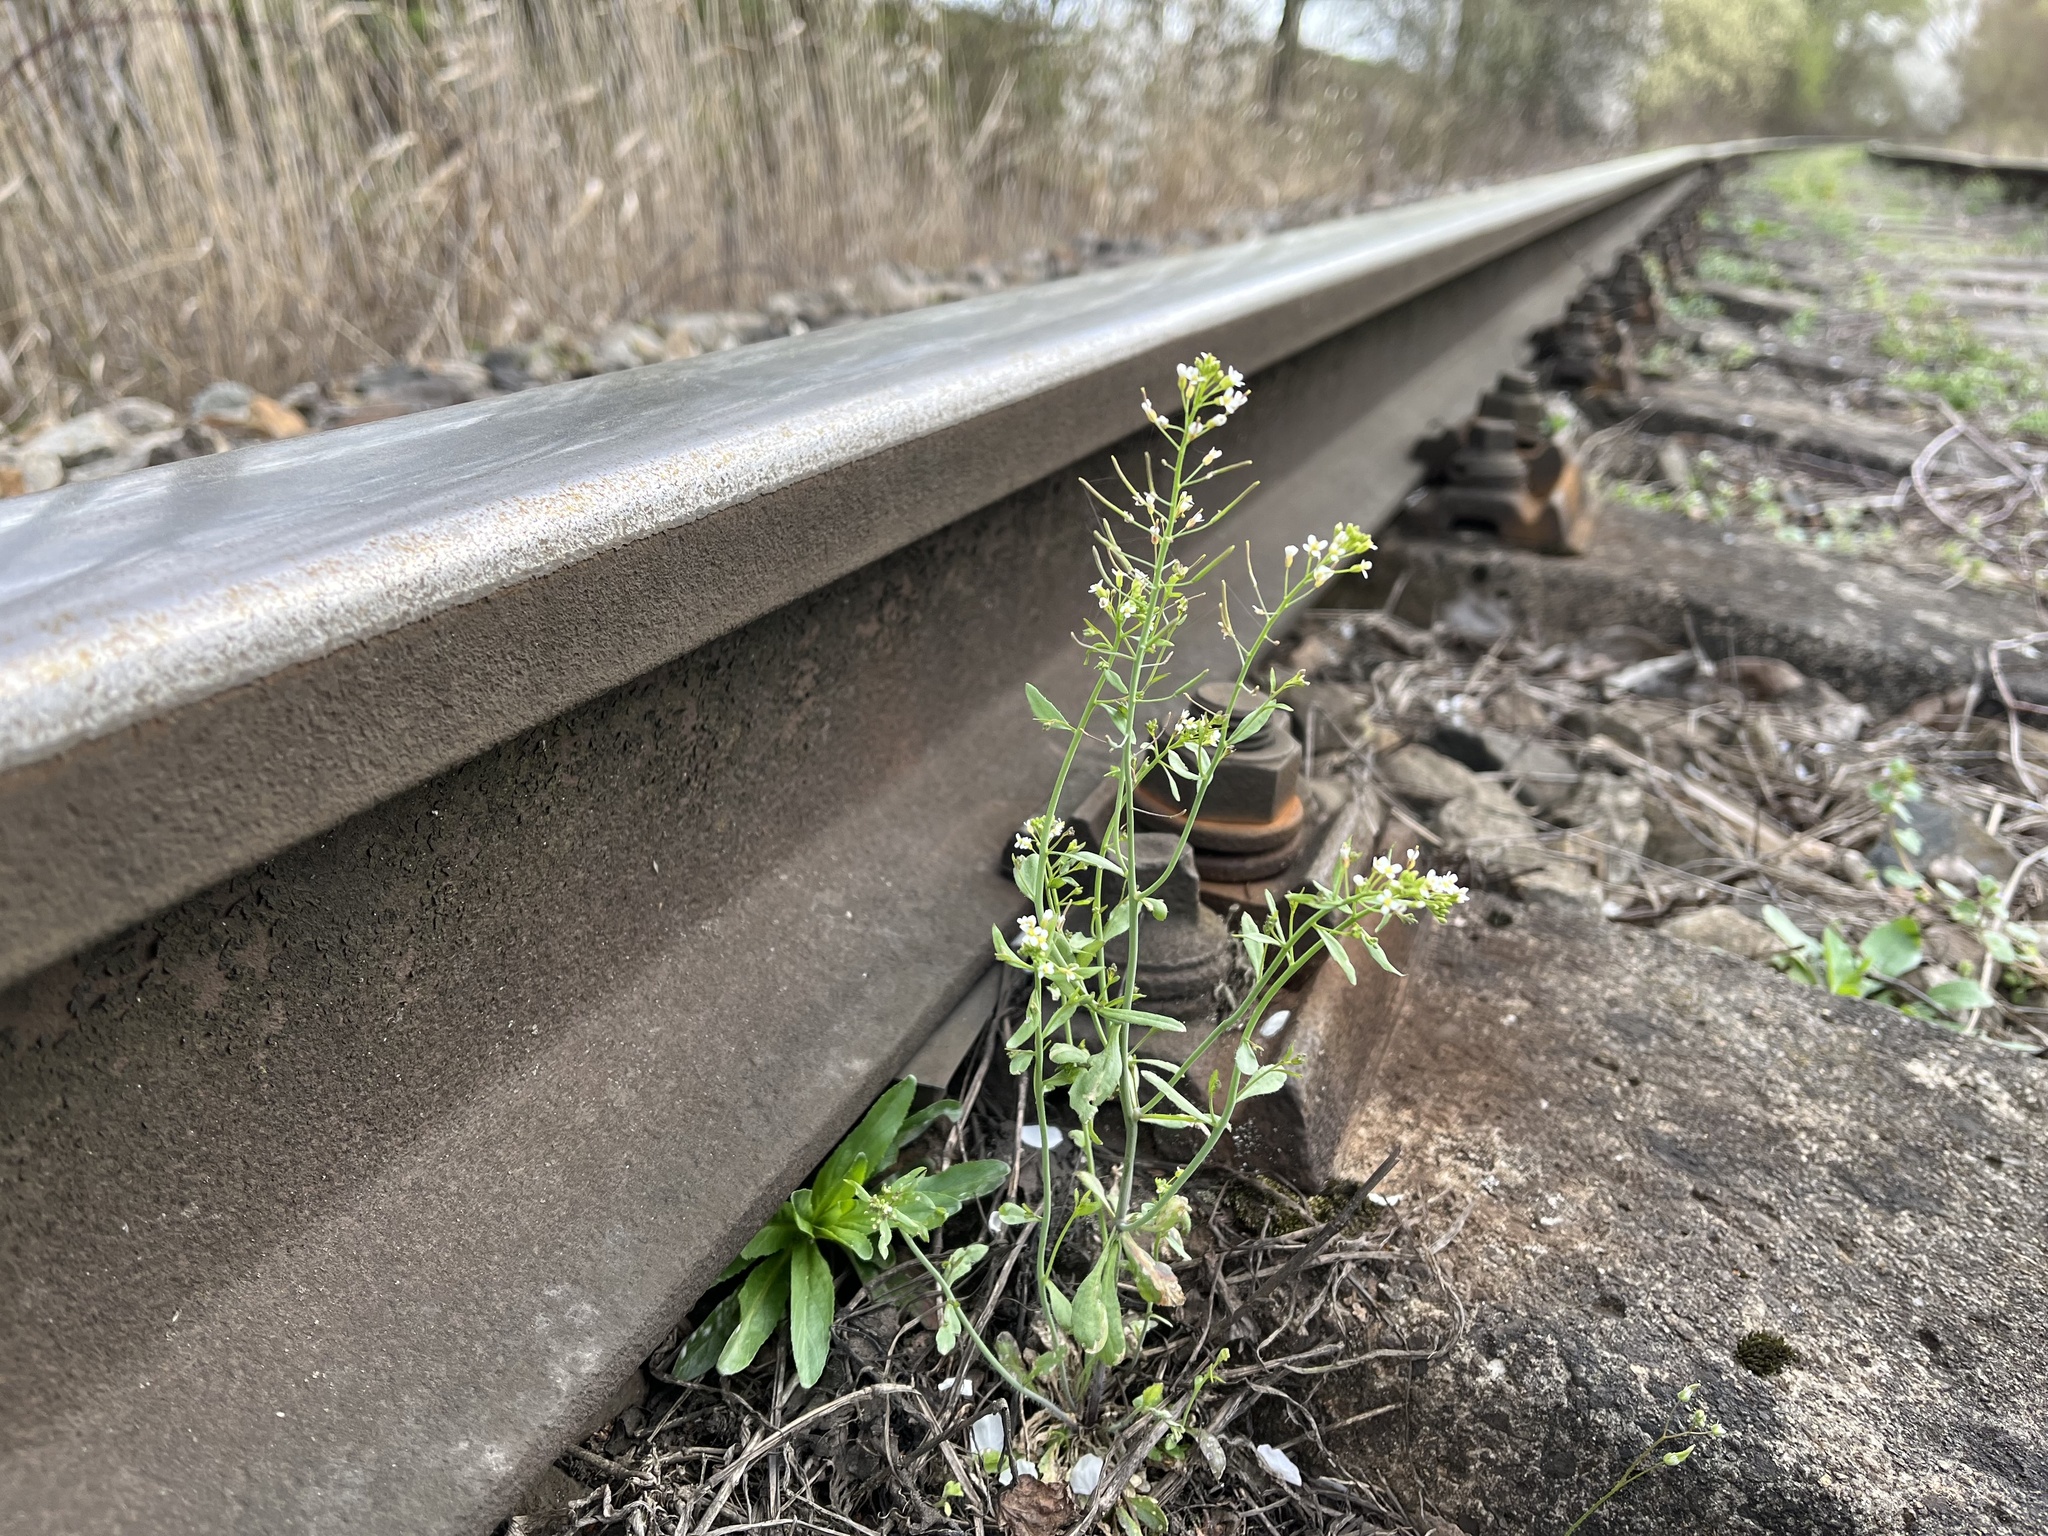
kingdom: Plantae
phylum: Tracheophyta
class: Magnoliopsida
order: Brassicales
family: Brassicaceae
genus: Arabidopsis
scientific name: Arabidopsis thaliana
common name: Thale cress
